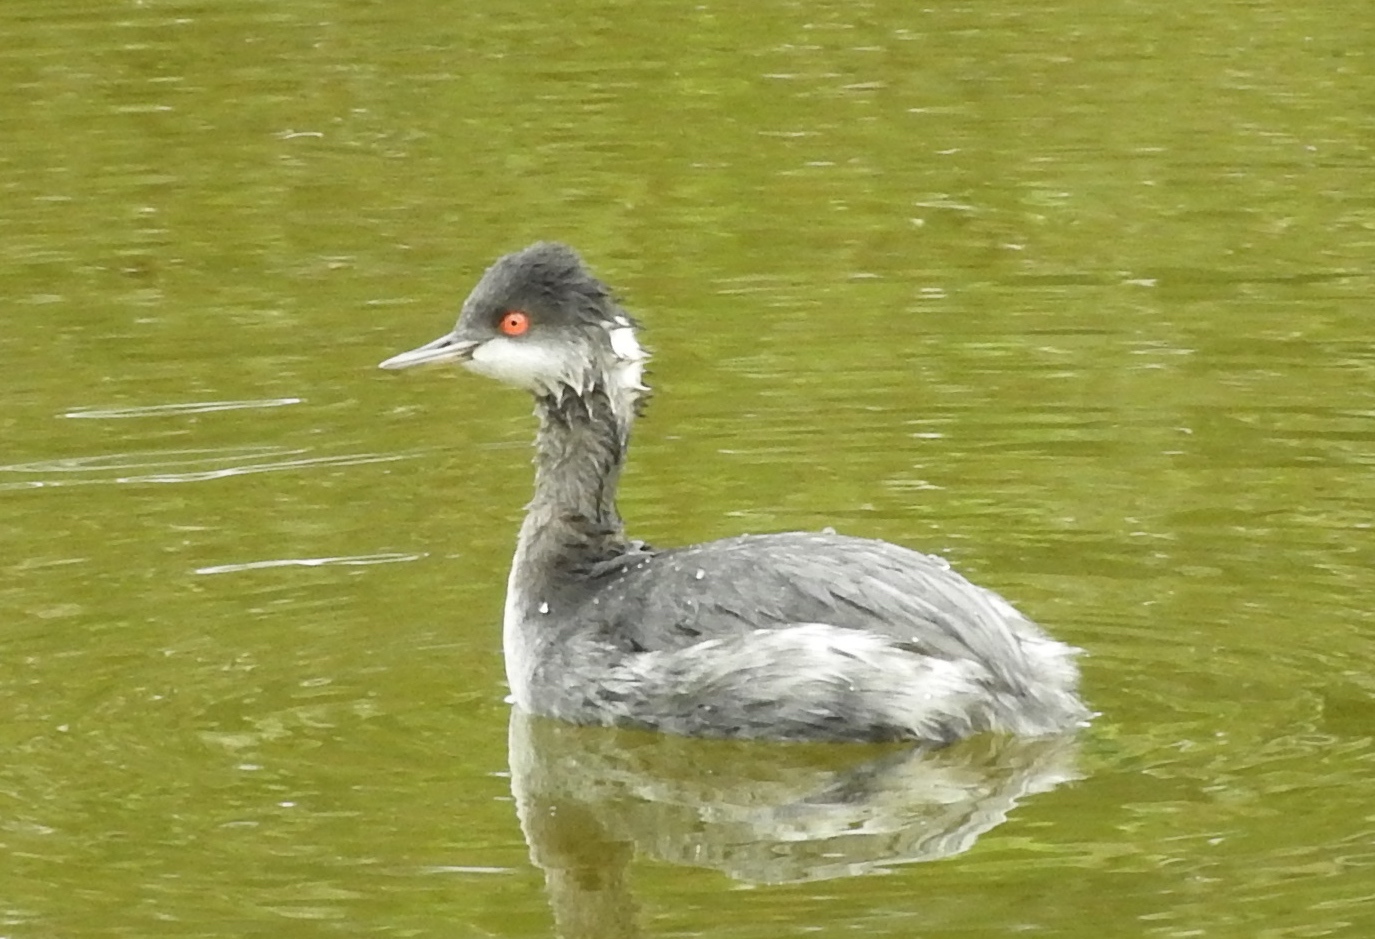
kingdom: Animalia
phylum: Chordata
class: Aves
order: Podicipediformes
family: Podicipedidae
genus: Podiceps
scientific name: Podiceps nigricollis
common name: Black-necked grebe
